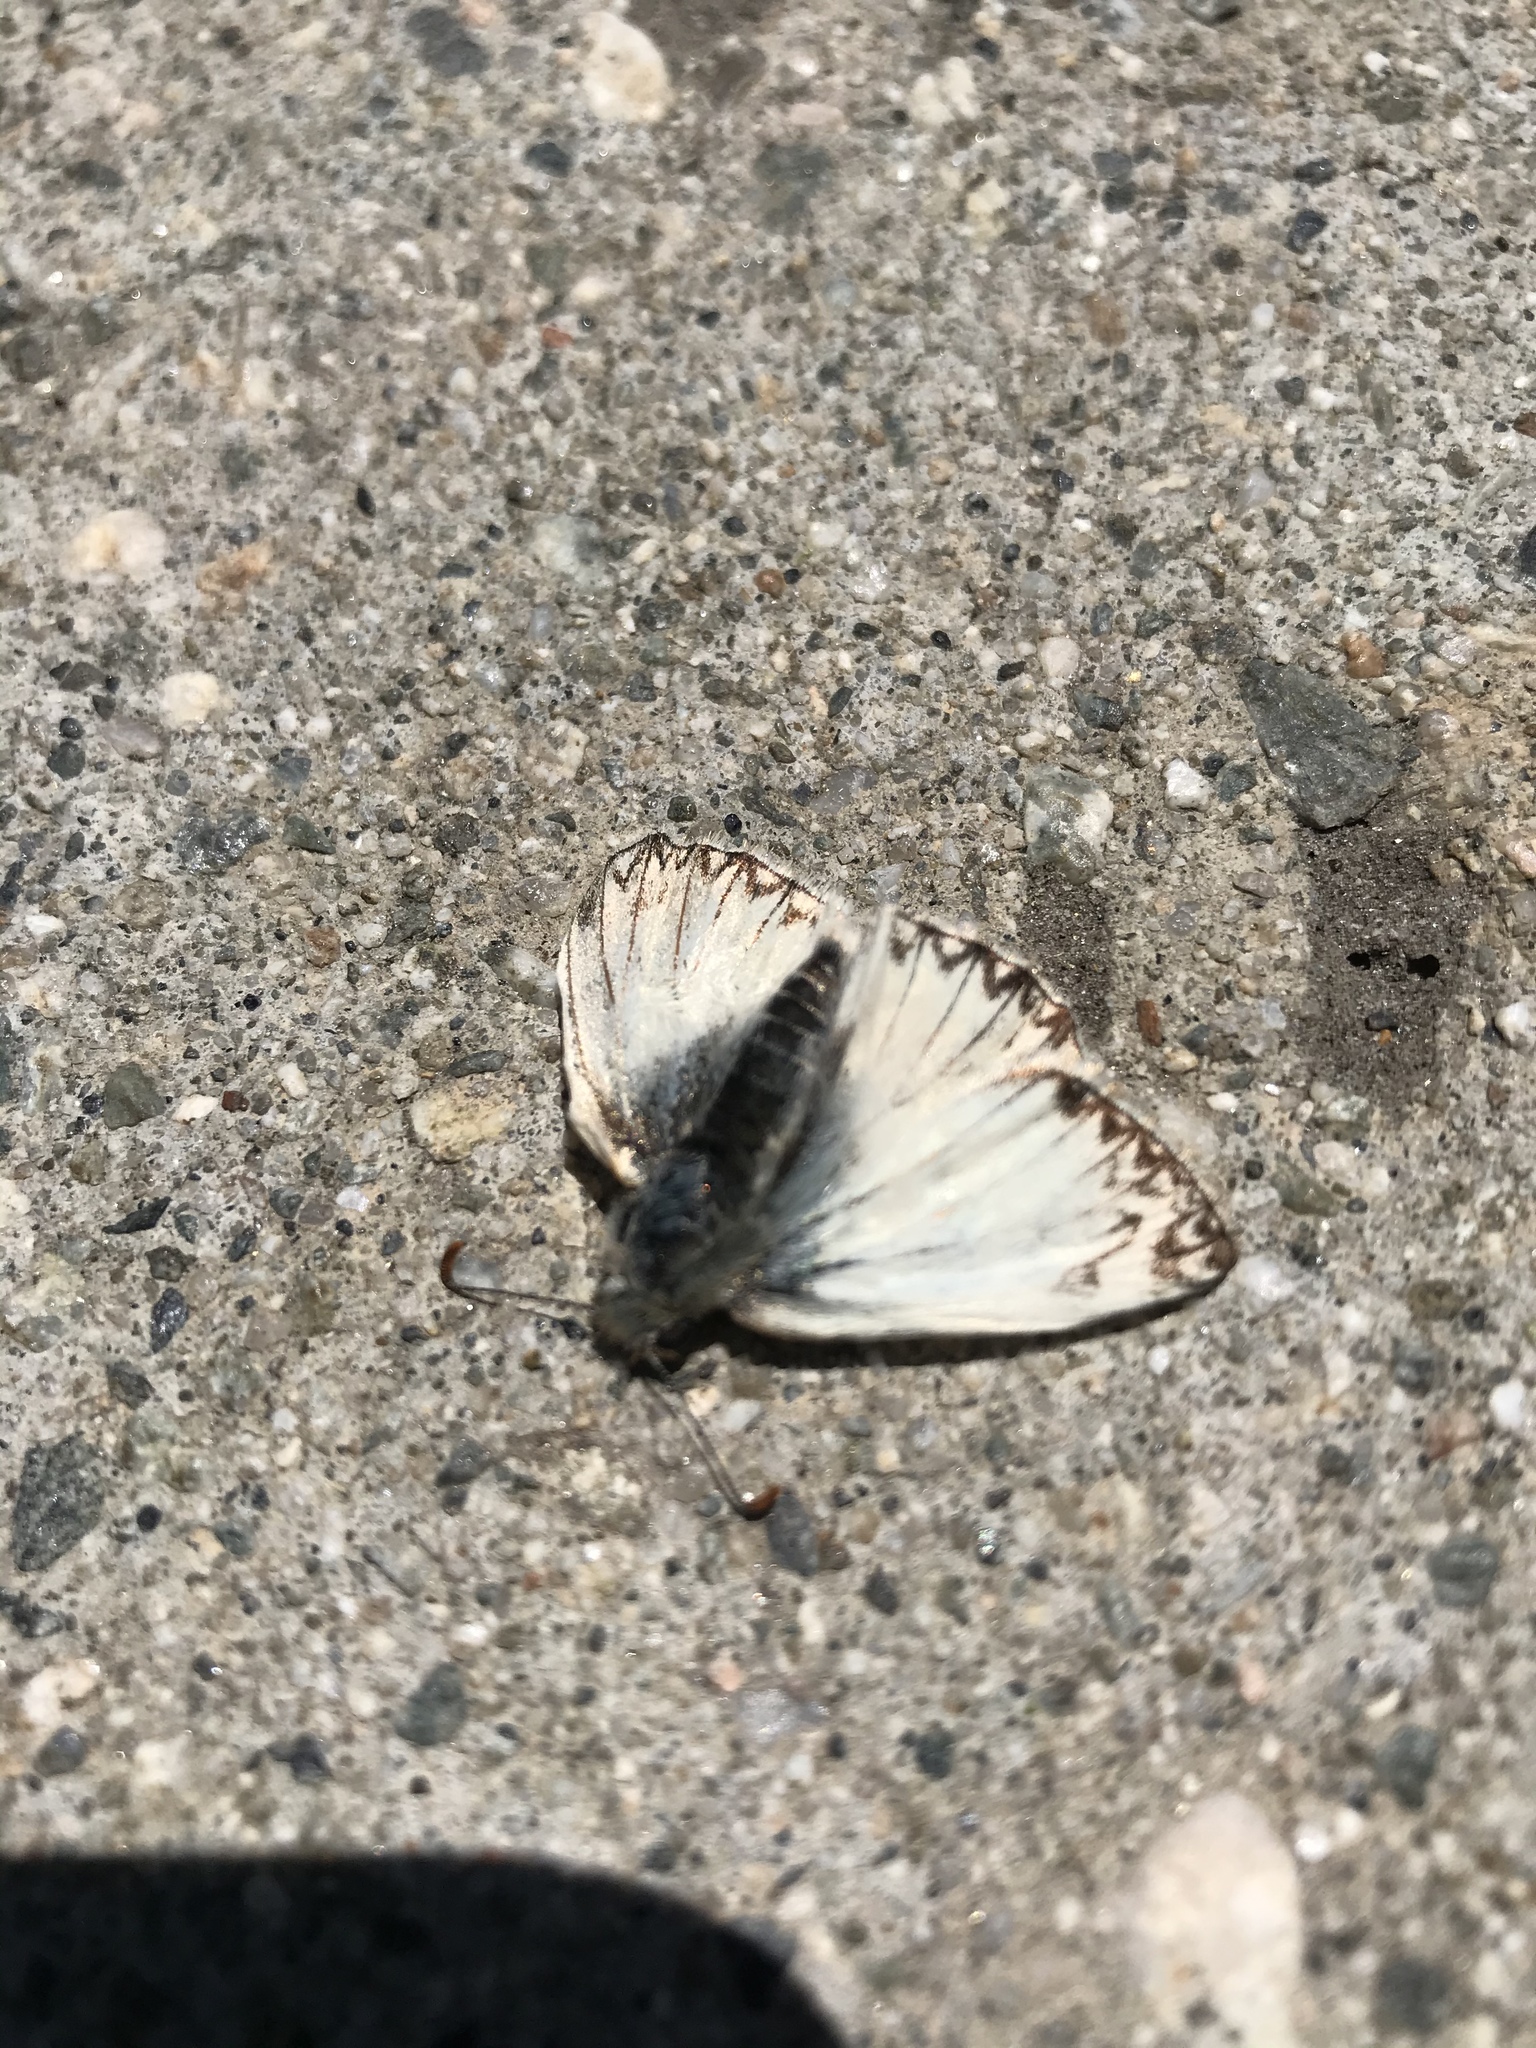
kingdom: Animalia
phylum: Arthropoda
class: Insecta
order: Lepidoptera
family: Hesperiidae
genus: Heliopetes
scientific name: Heliopetes ericetorum
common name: Northern white-skipper
